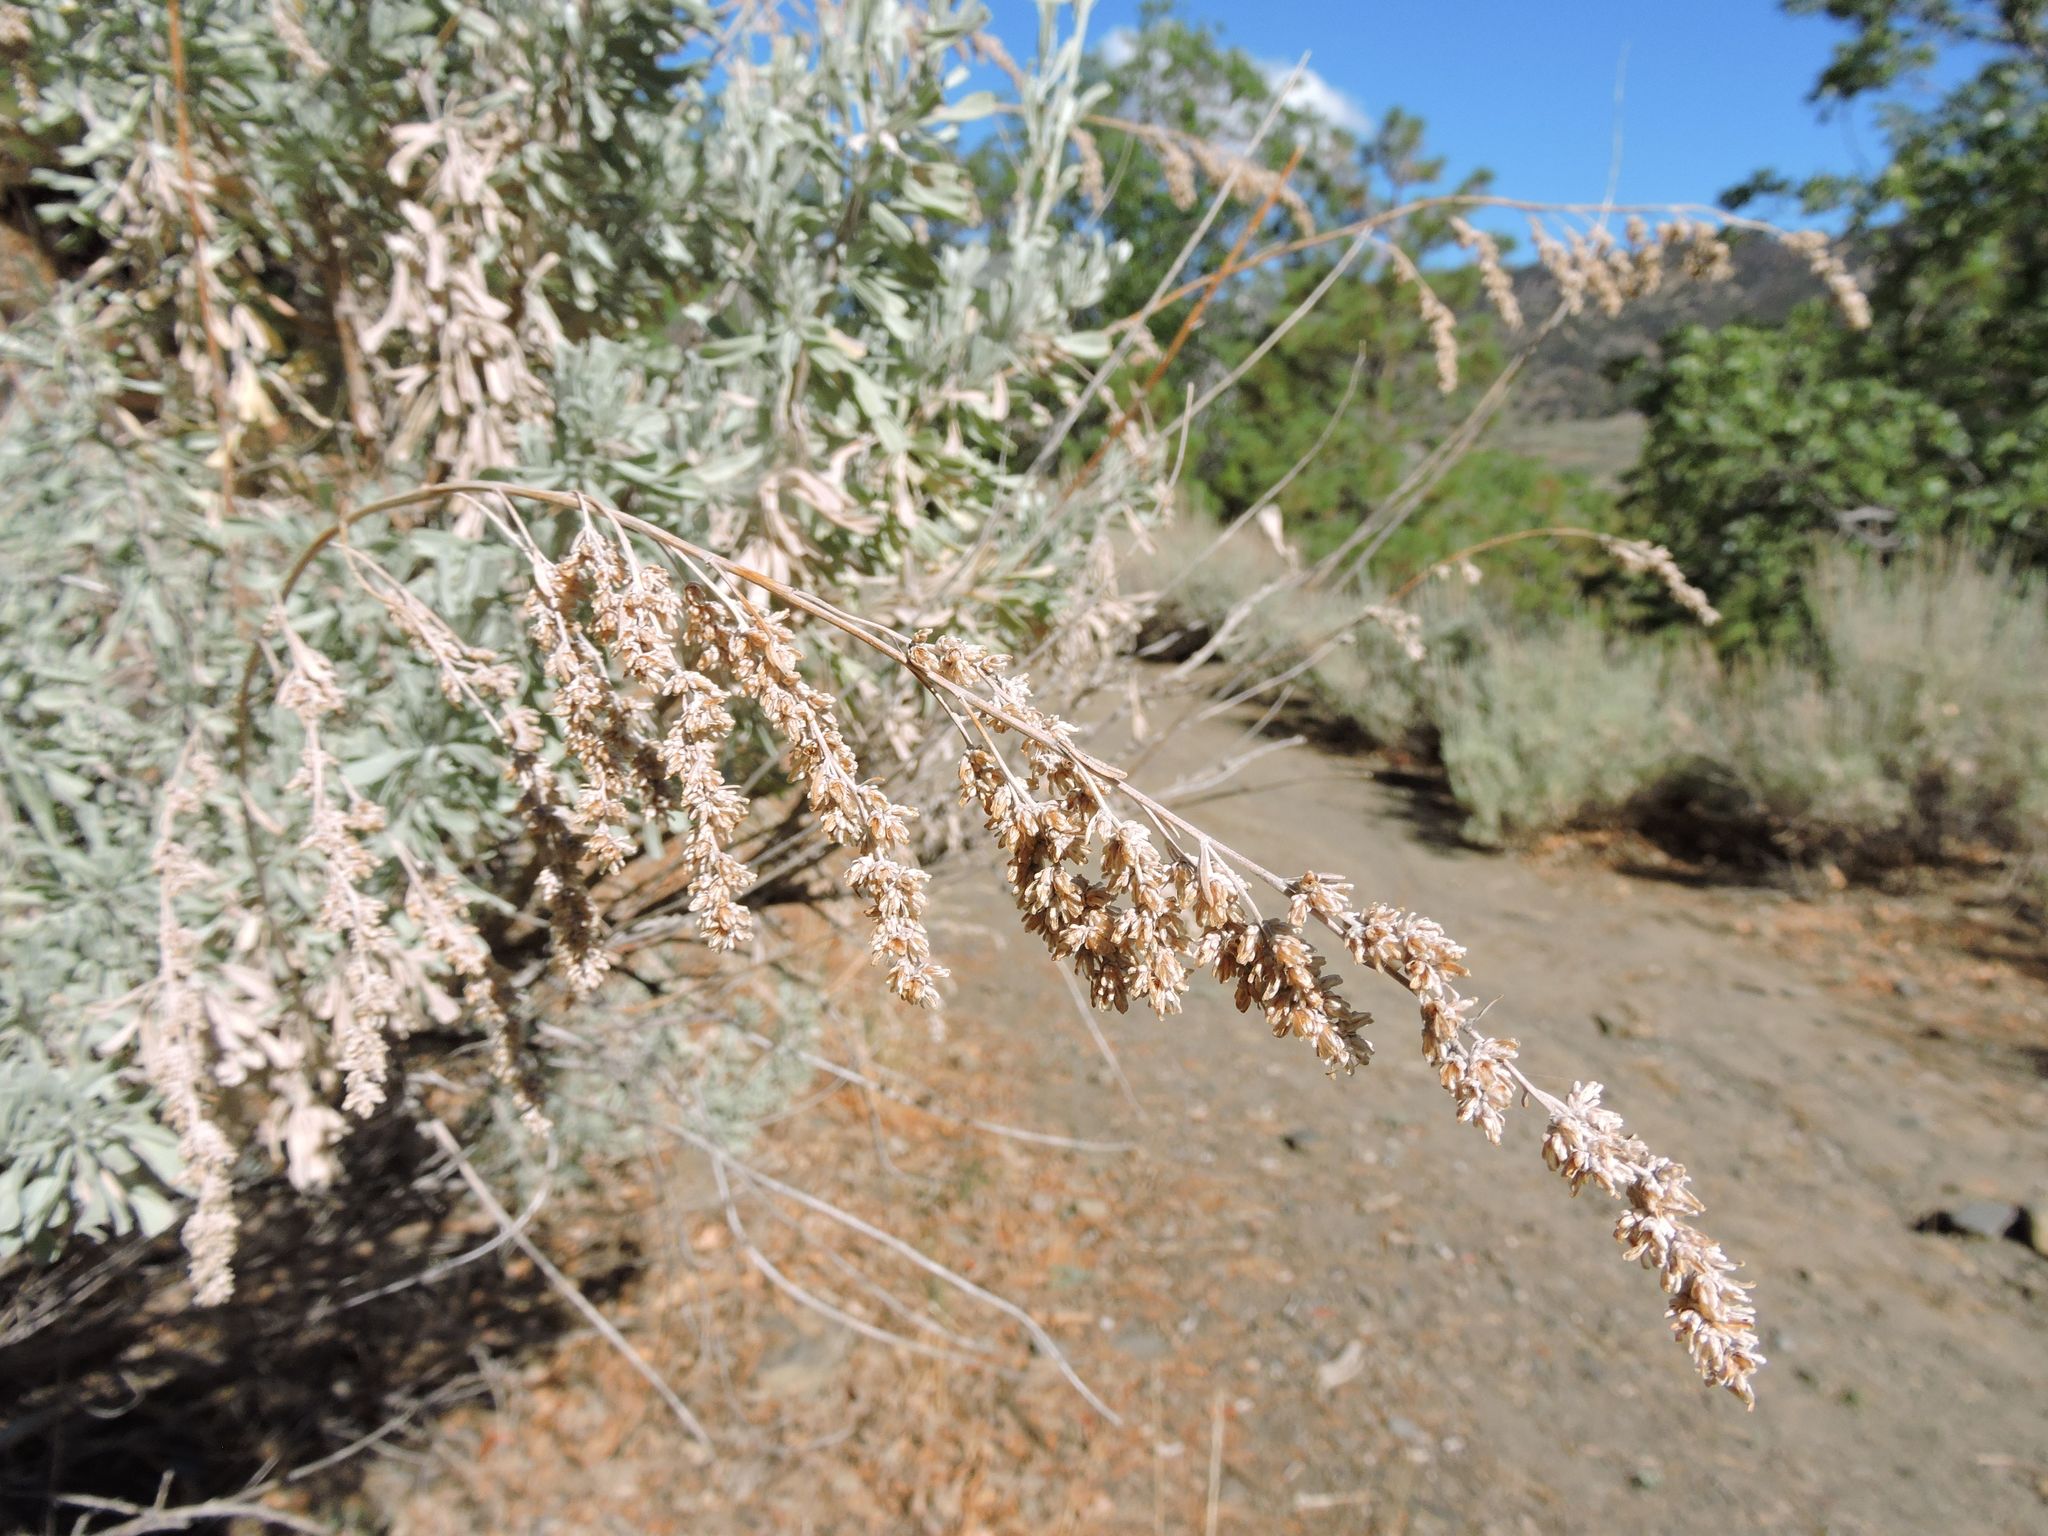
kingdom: Plantae
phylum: Tracheophyta
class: Magnoliopsida
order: Asterales
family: Asteraceae
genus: Artemisia
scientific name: Artemisia tridentata
